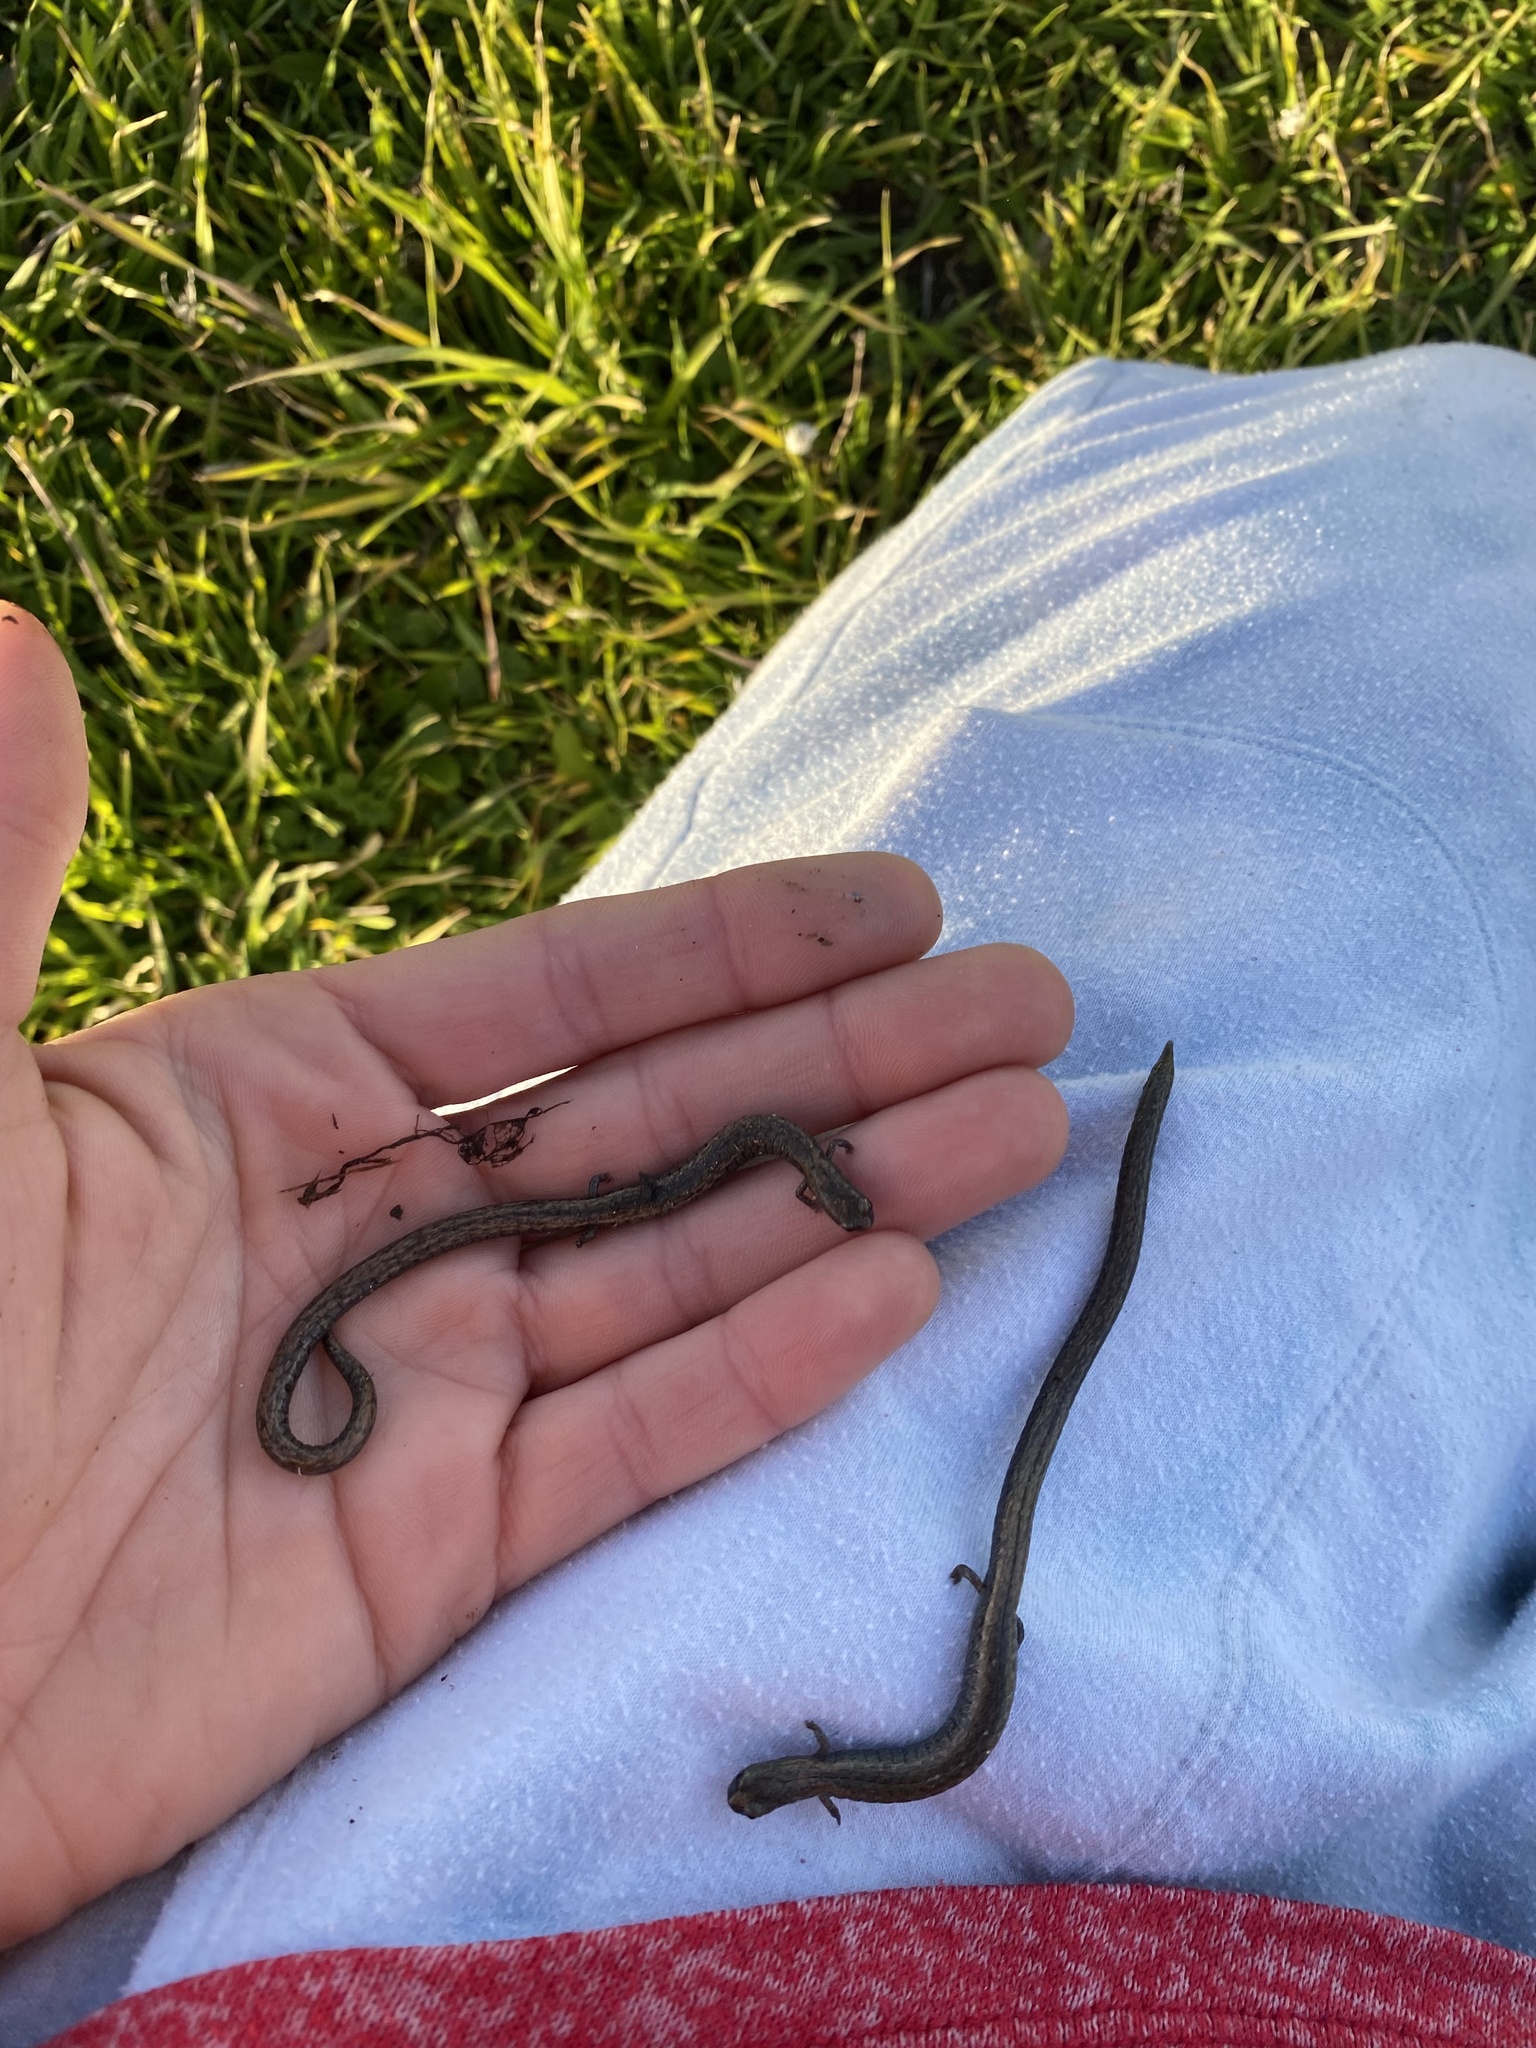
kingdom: Animalia
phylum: Chordata
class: Amphibia
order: Caudata
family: Plethodontidae
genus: Batrachoseps
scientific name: Batrachoseps nigriventris
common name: Black-bellied slender salamander
